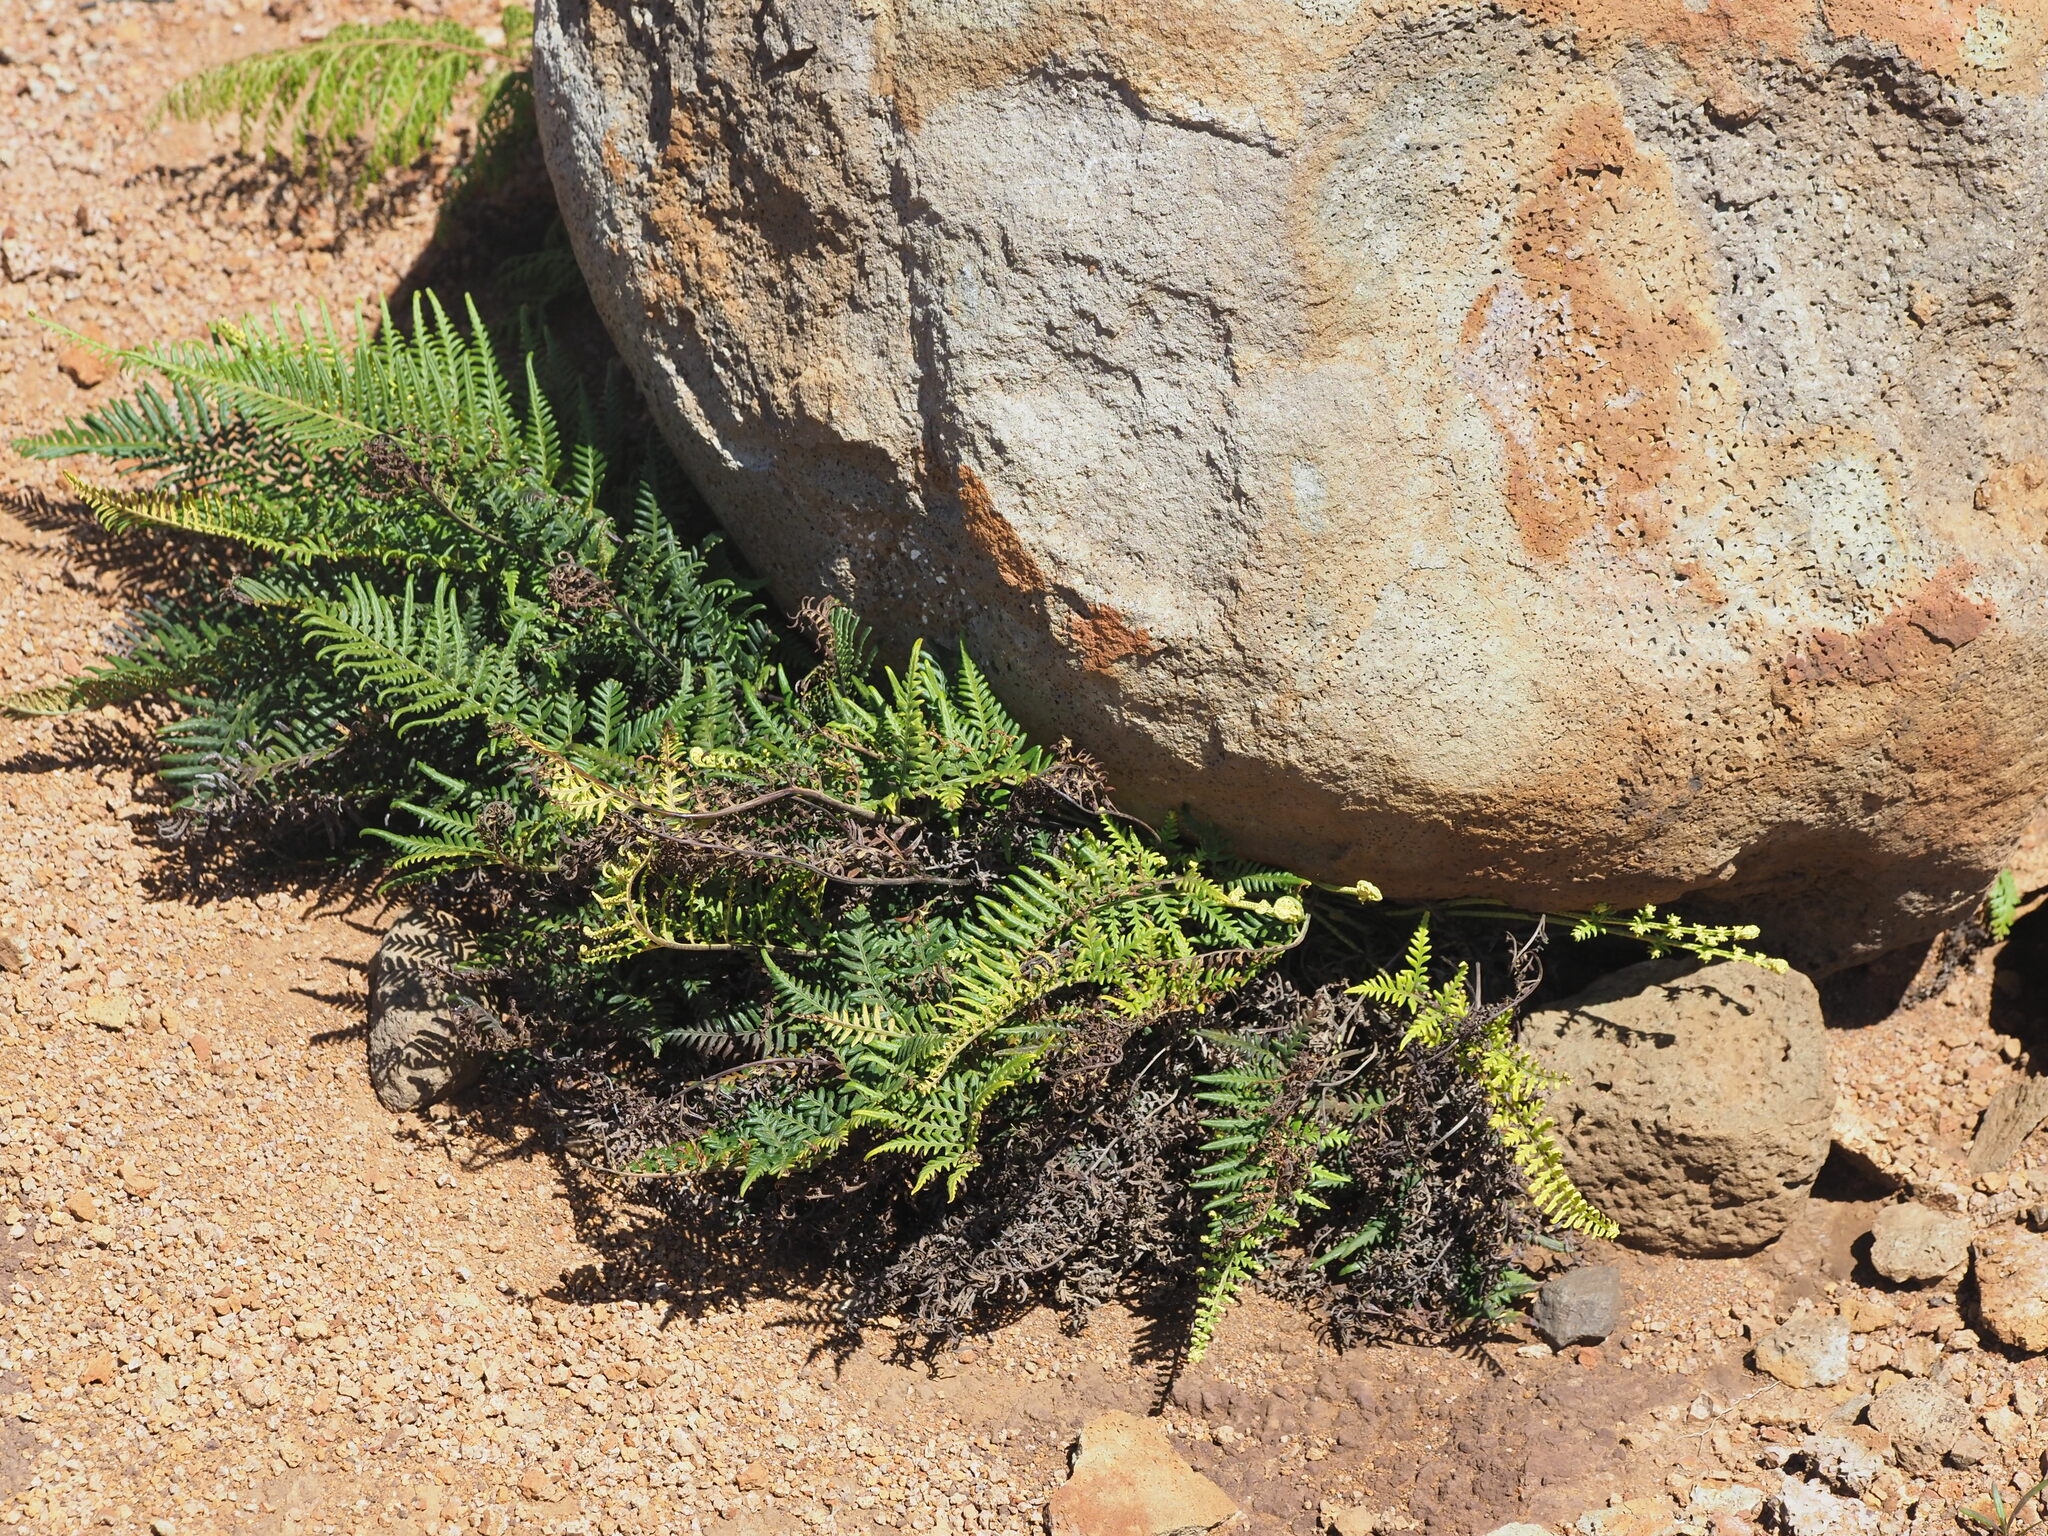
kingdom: Plantae
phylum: Tracheophyta
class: Polypodiopsida
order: Polypodiales
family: Pteridaceae
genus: Pityrogramma
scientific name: Pityrogramma austroamericana
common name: Leatherleaf goldback fern
